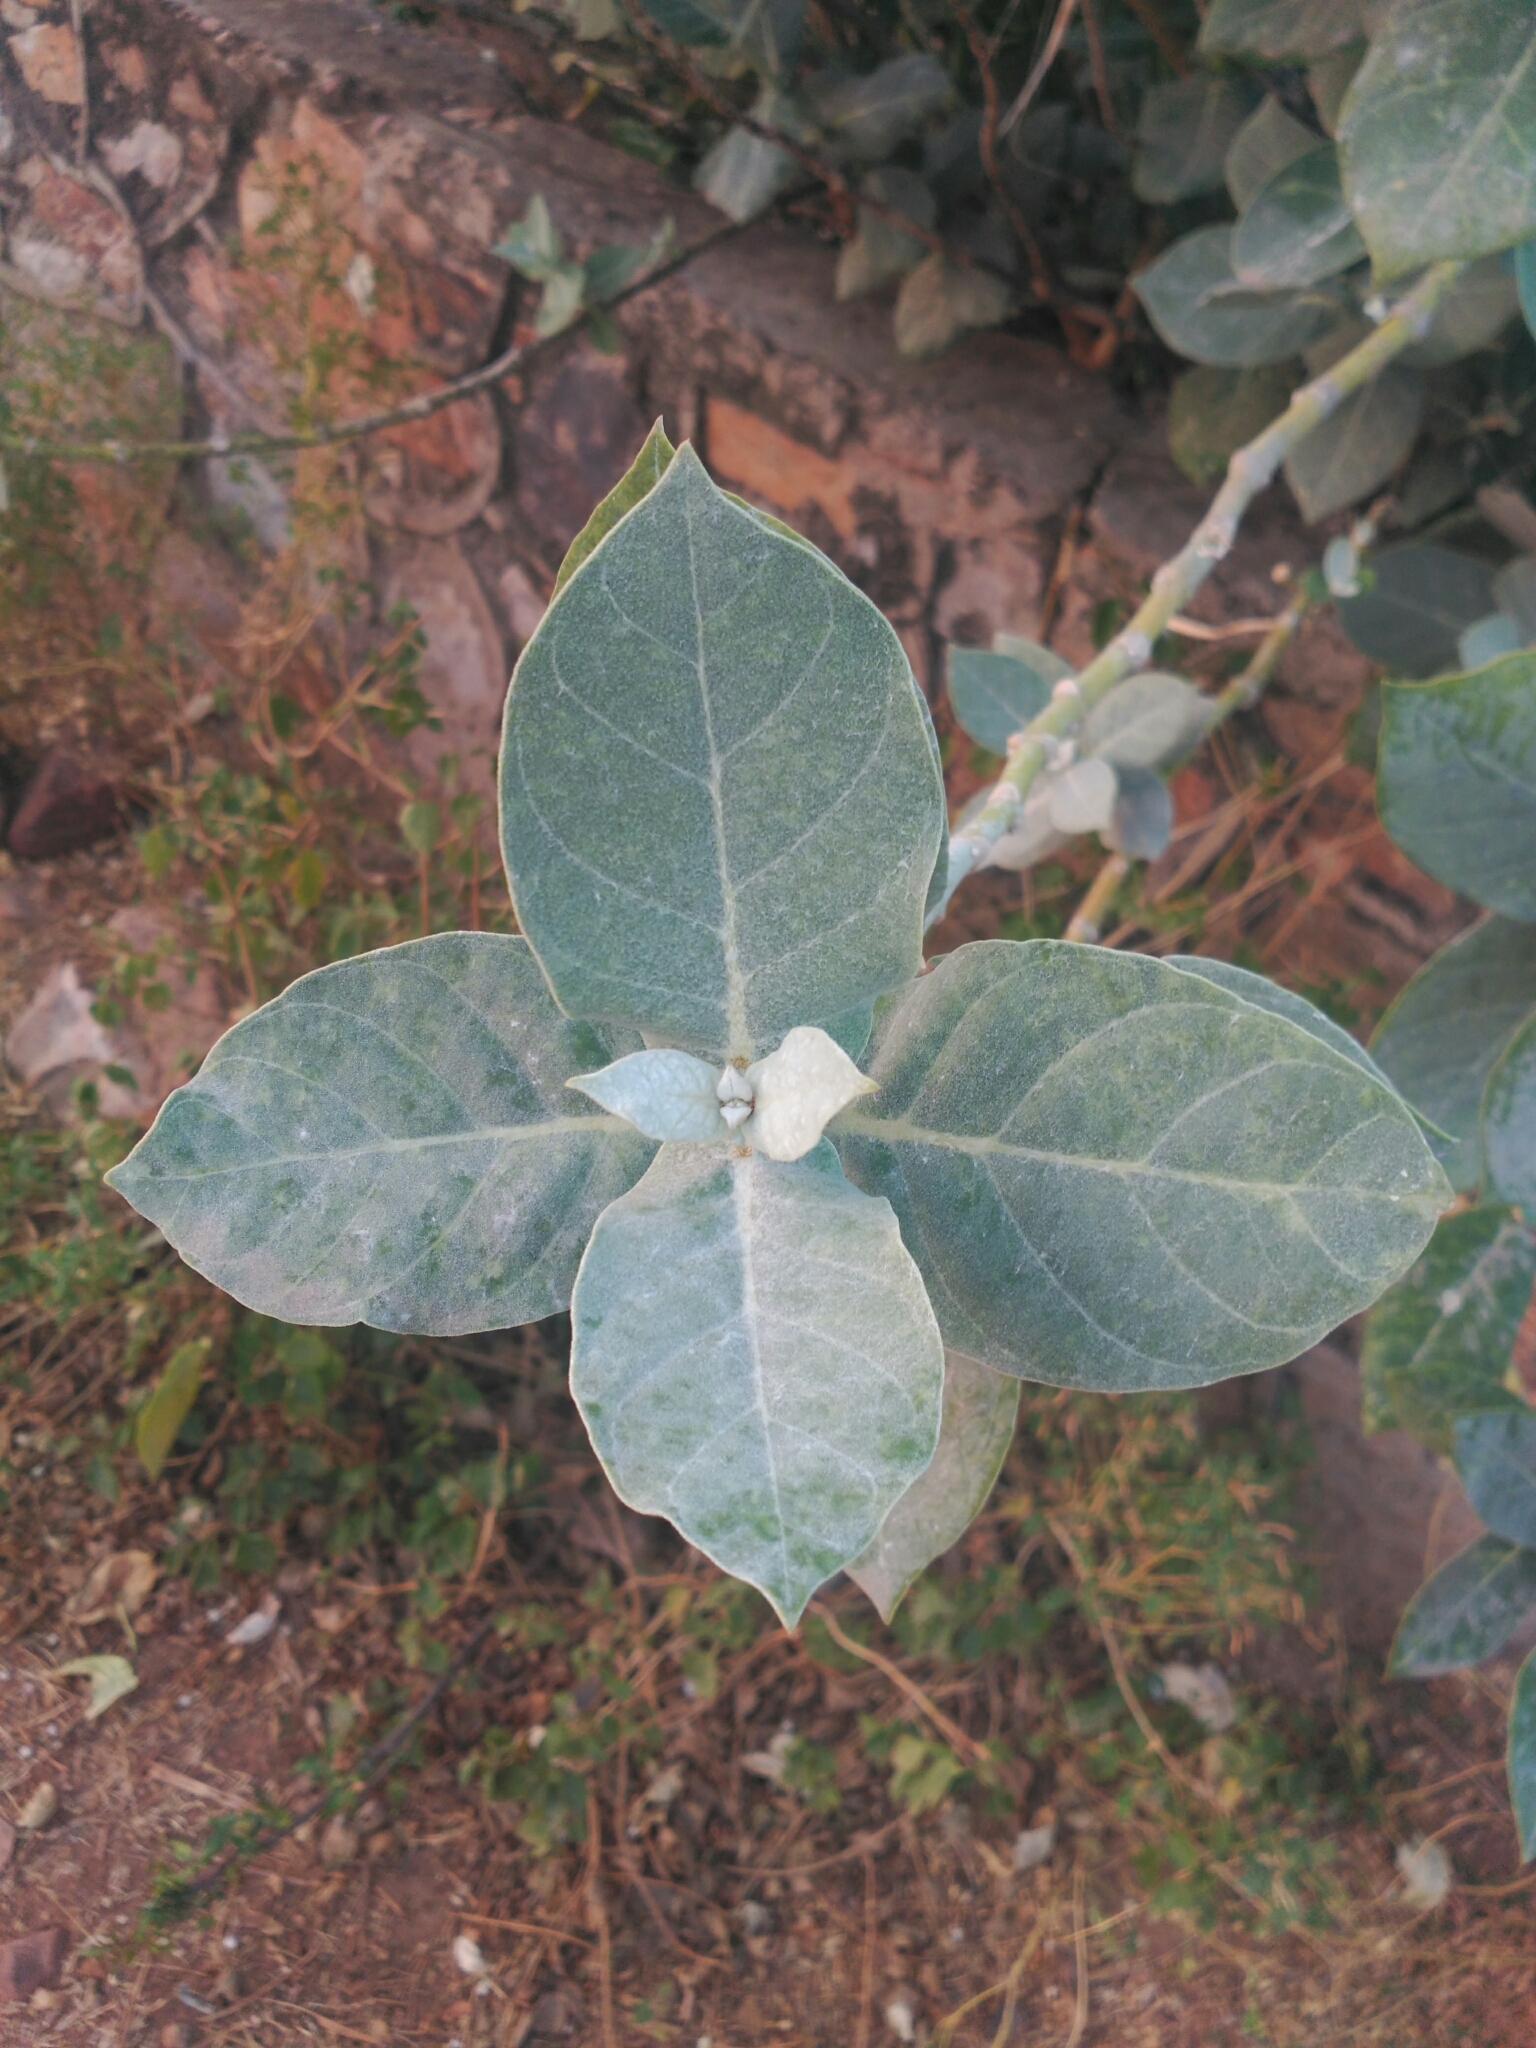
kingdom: Plantae
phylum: Tracheophyta
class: Magnoliopsida
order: Gentianales
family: Apocynaceae
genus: Calotropis
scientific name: Calotropis procera
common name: Roostertree
